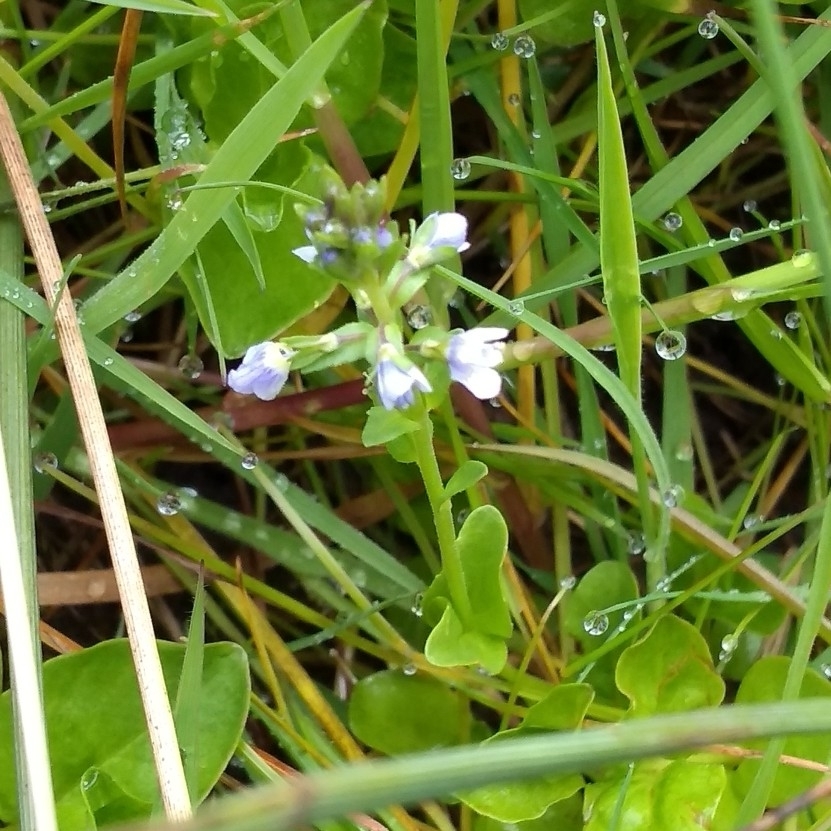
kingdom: Plantae
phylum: Tracheophyta
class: Magnoliopsida
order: Lamiales
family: Plantaginaceae
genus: Veronica
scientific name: Veronica serpyllifolia
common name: Thyme-leaved speedwell
